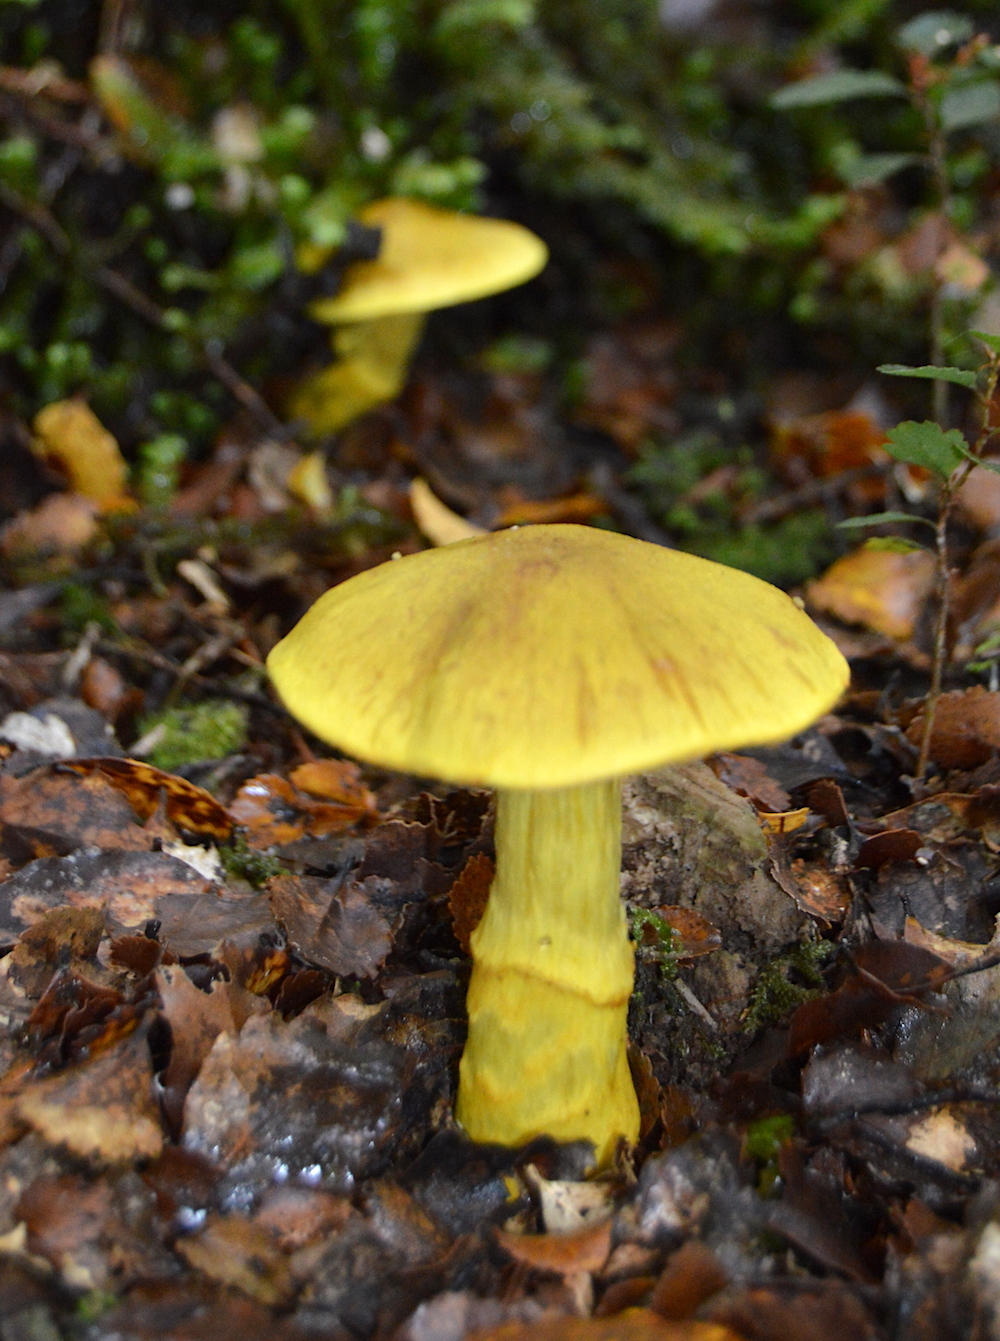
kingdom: Fungi
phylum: Basidiomycota
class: Agaricomycetes
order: Agaricales
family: Cortinariaceae
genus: Cortinarius
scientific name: Cortinarius canarius
